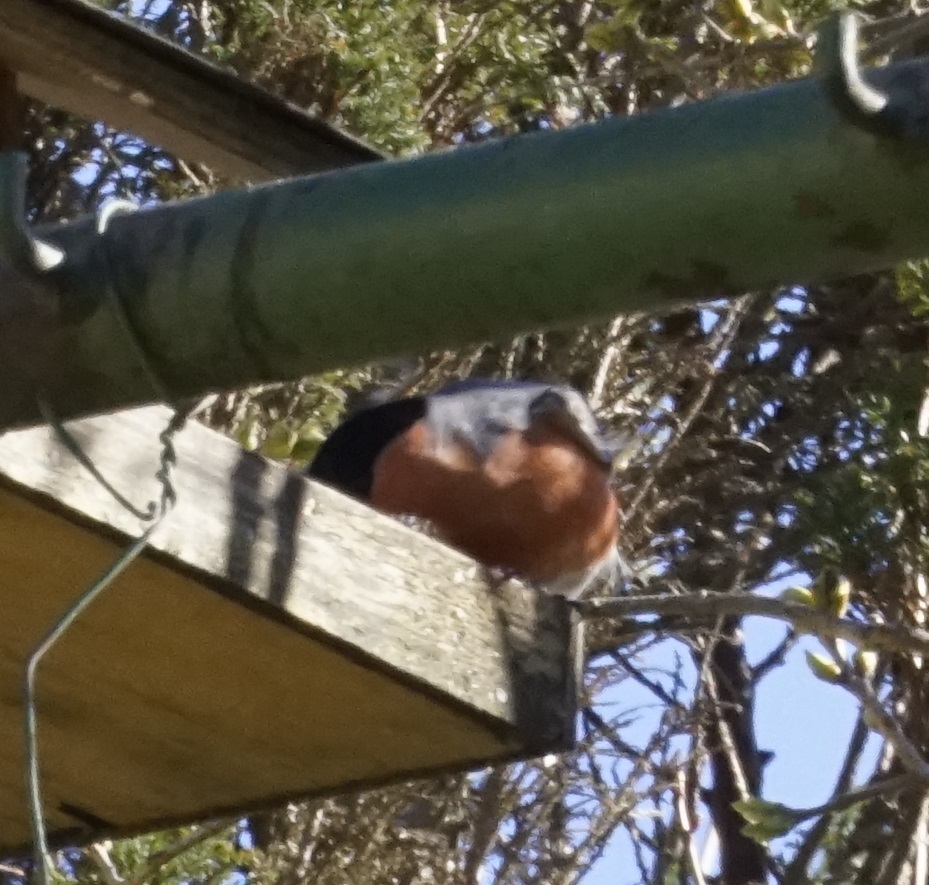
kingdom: Animalia
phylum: Chordata
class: Aves
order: Passeriformes
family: Fringillidae
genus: Pyrrhula
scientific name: Pyrrhula pyrrhula
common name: Eurasian bullfinch
